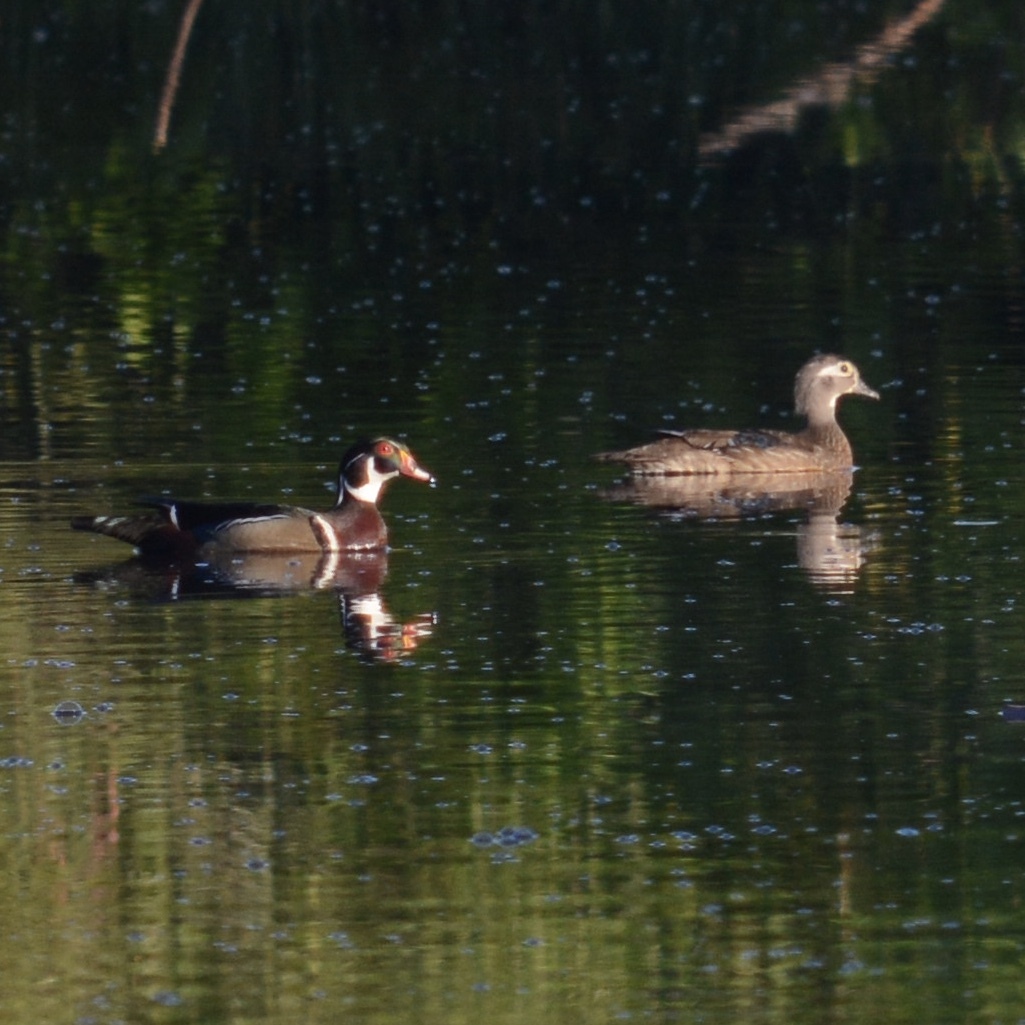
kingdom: Animalia
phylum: Chordata
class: Aves
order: Anseriformes
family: Anatidae
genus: Aix
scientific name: Aix sponsa
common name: Wood duck
